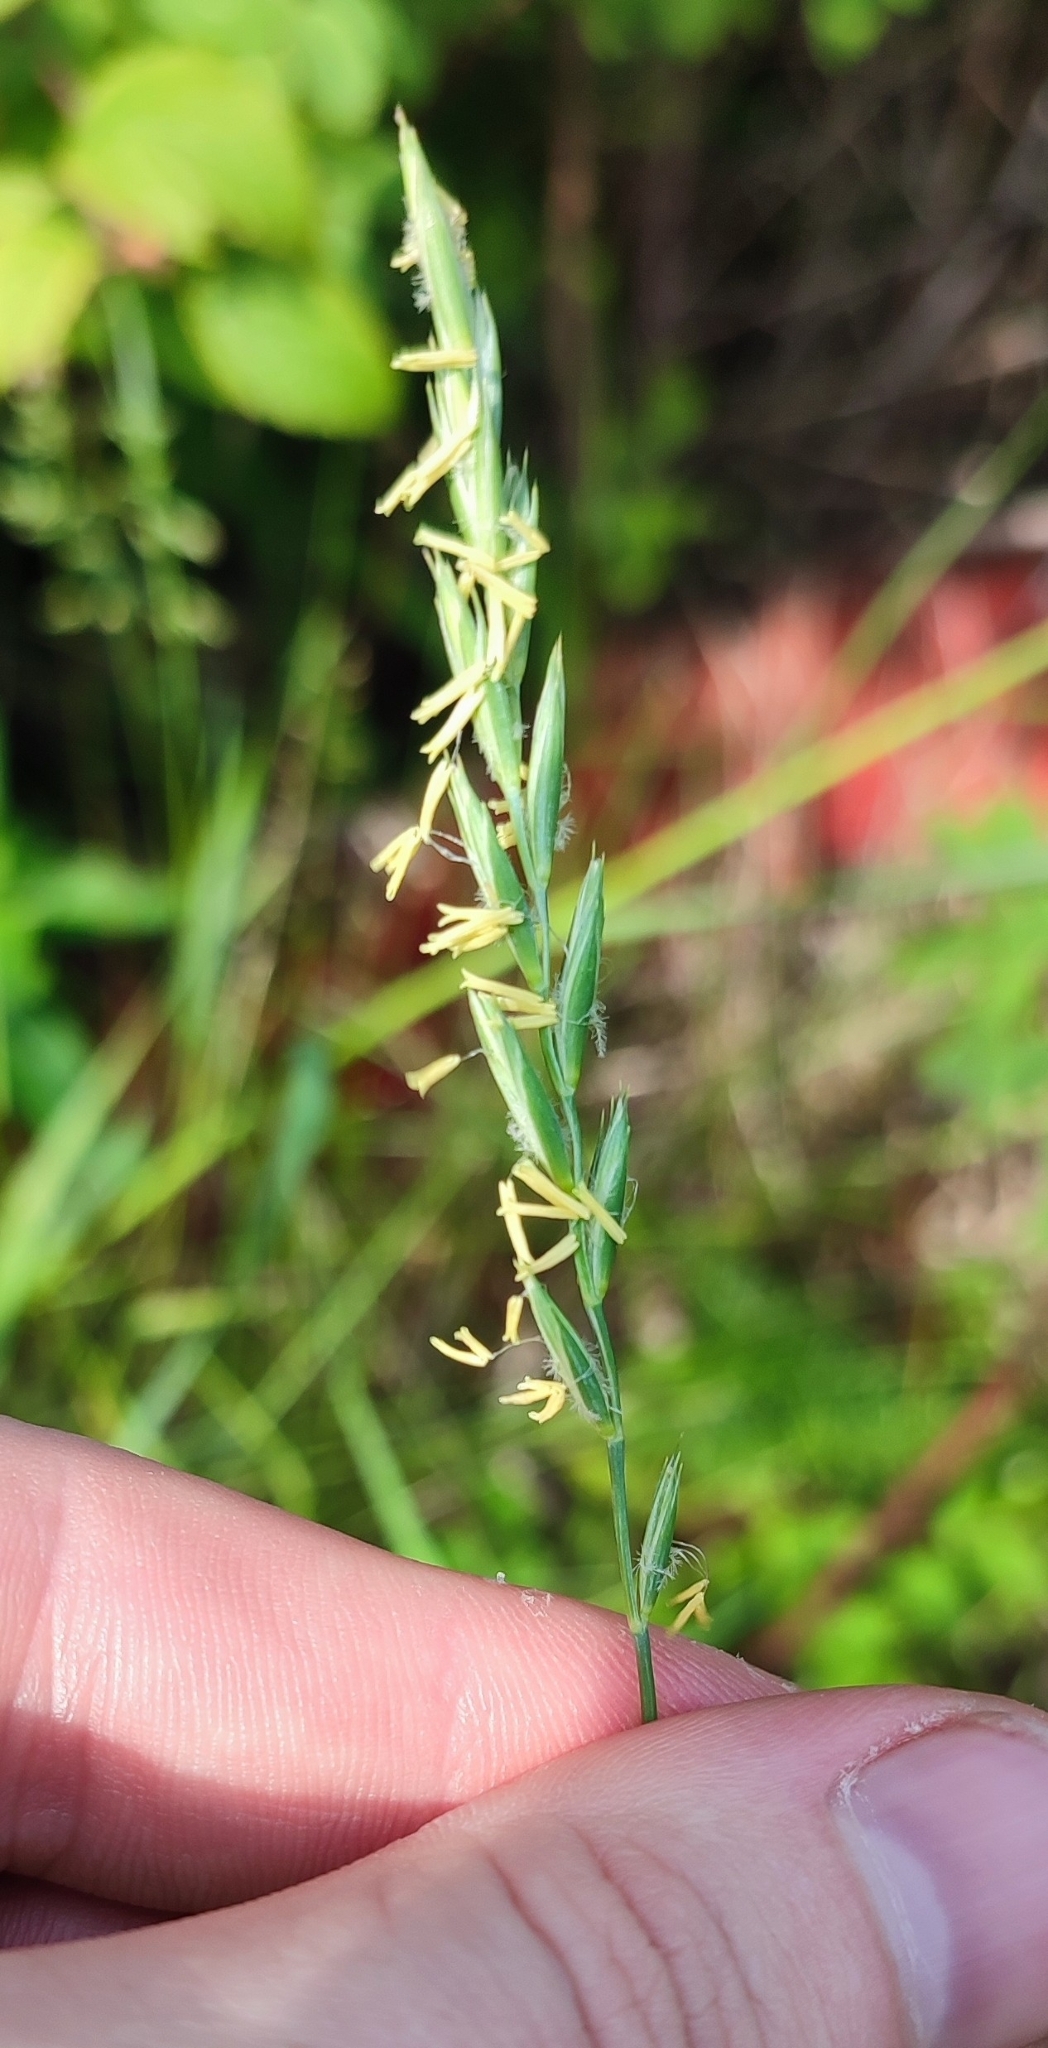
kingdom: Plantae
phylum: Tracheophyta
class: Liliopsida
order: Poales
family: Poaceae
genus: Elymus
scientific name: Elymus repens
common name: Quackgrass
